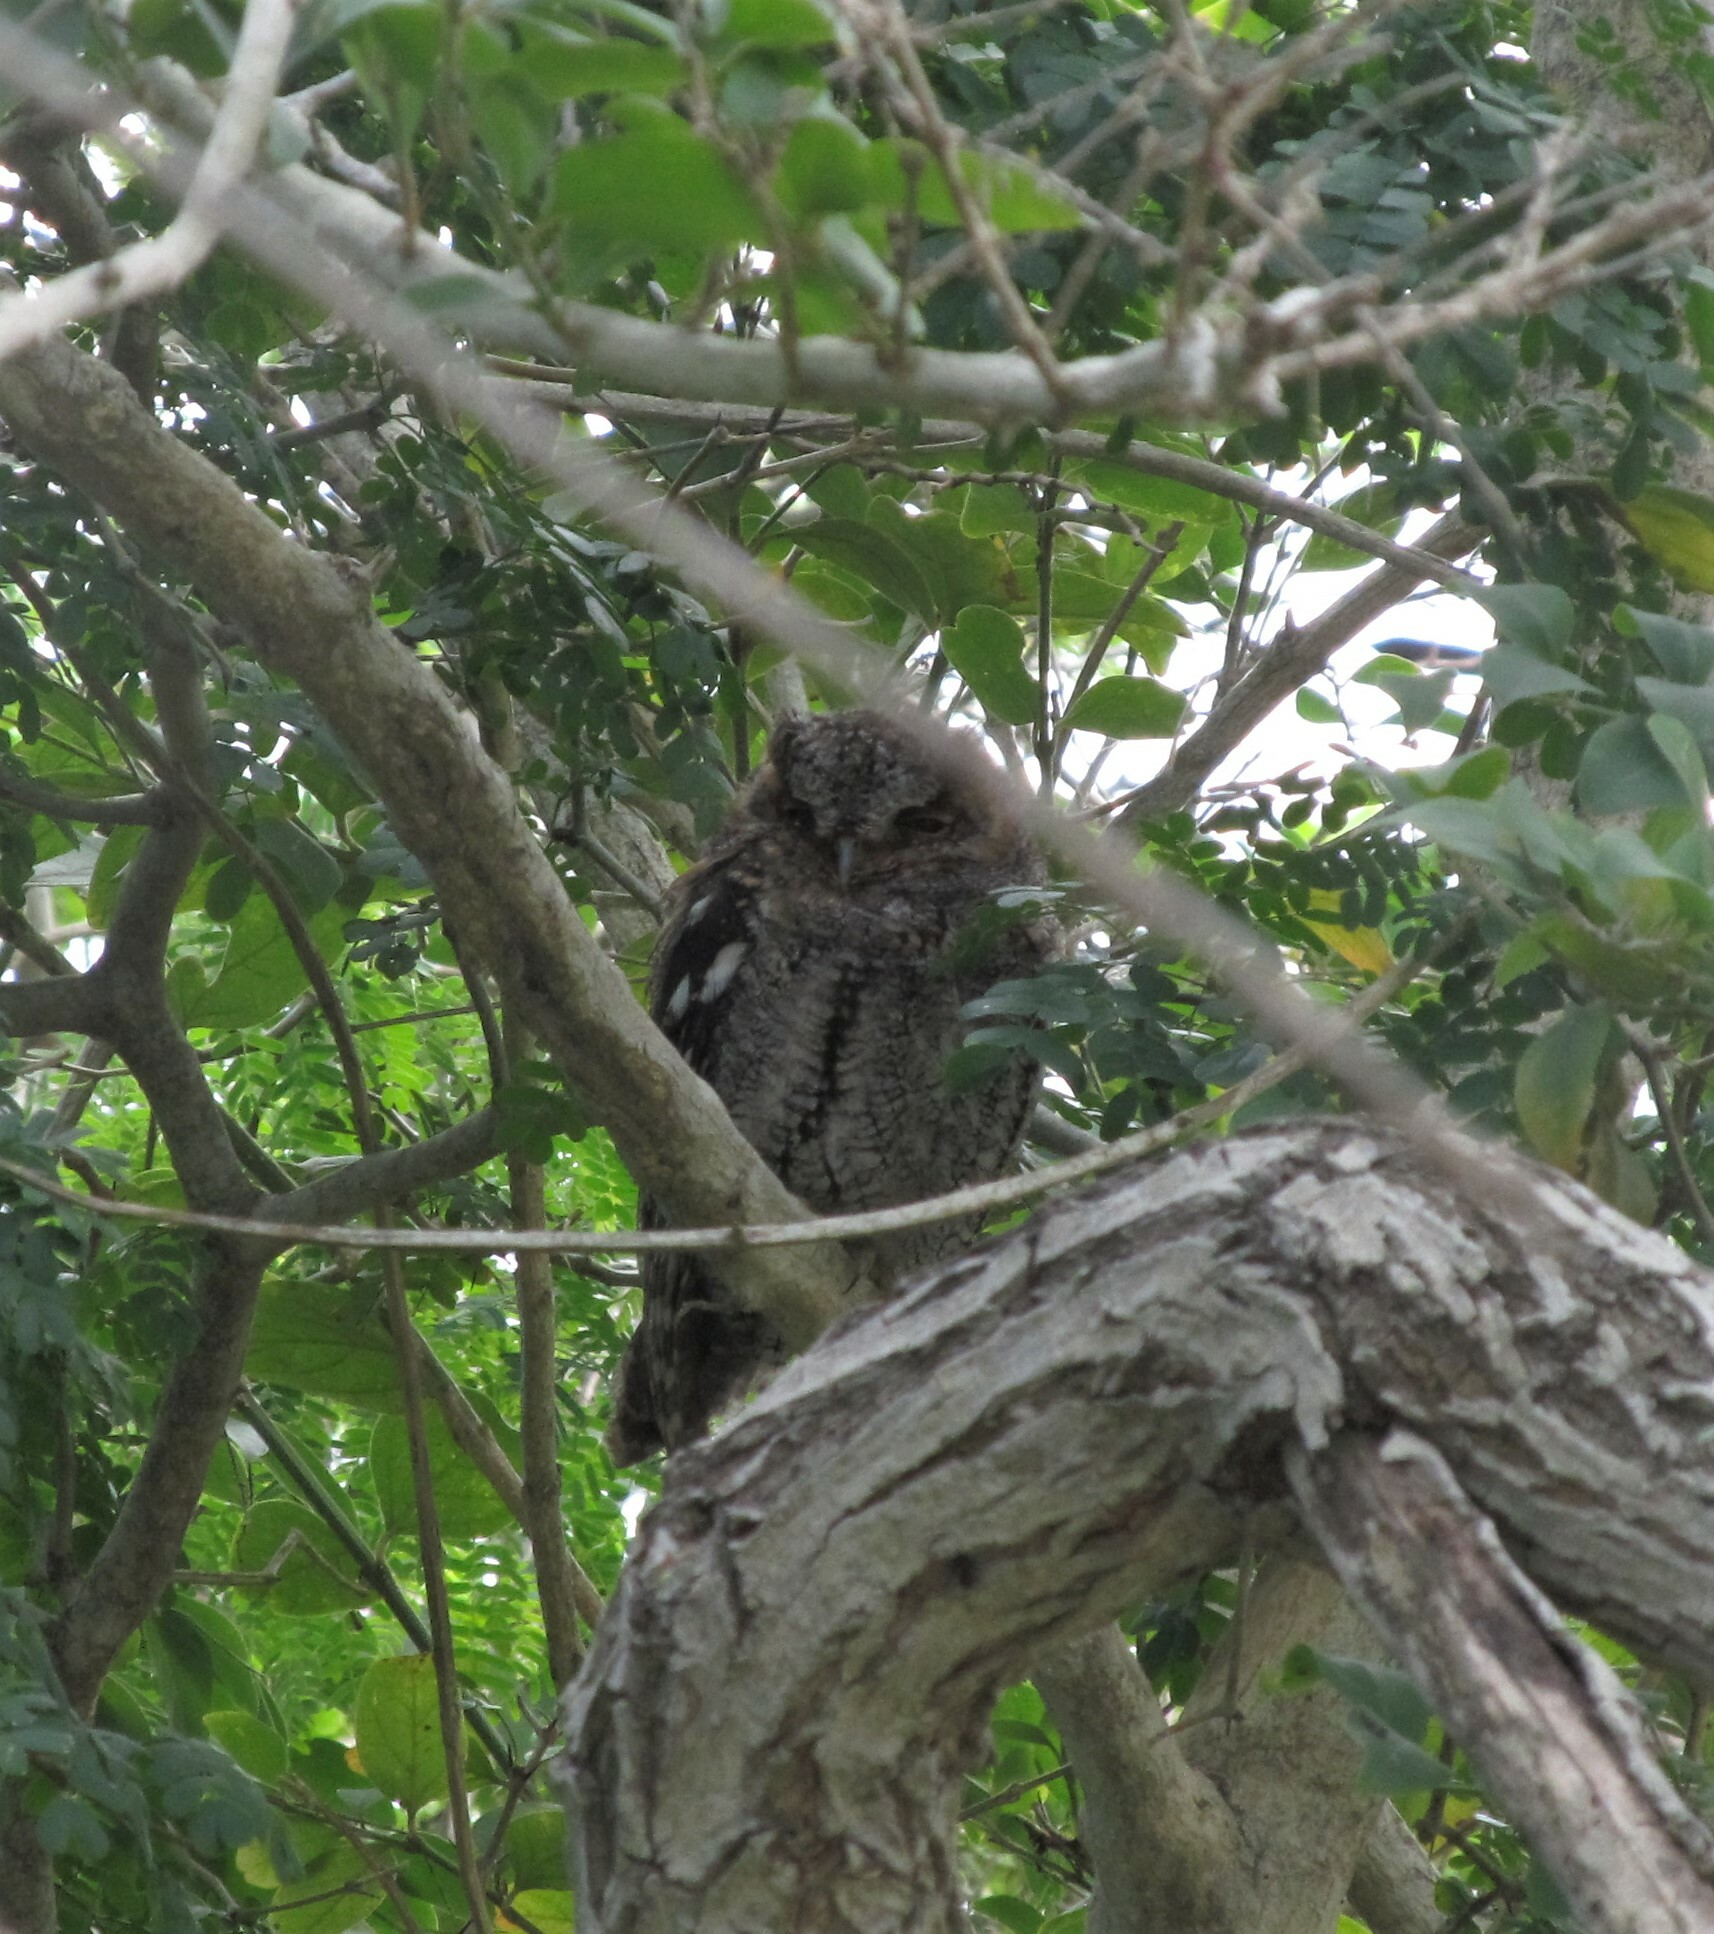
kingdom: Animalia
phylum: Chordata
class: Aves
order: Strigiformes
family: Strigidae
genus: Psiloscops
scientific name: Psiloscops flammeolus
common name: Flammulated owl
